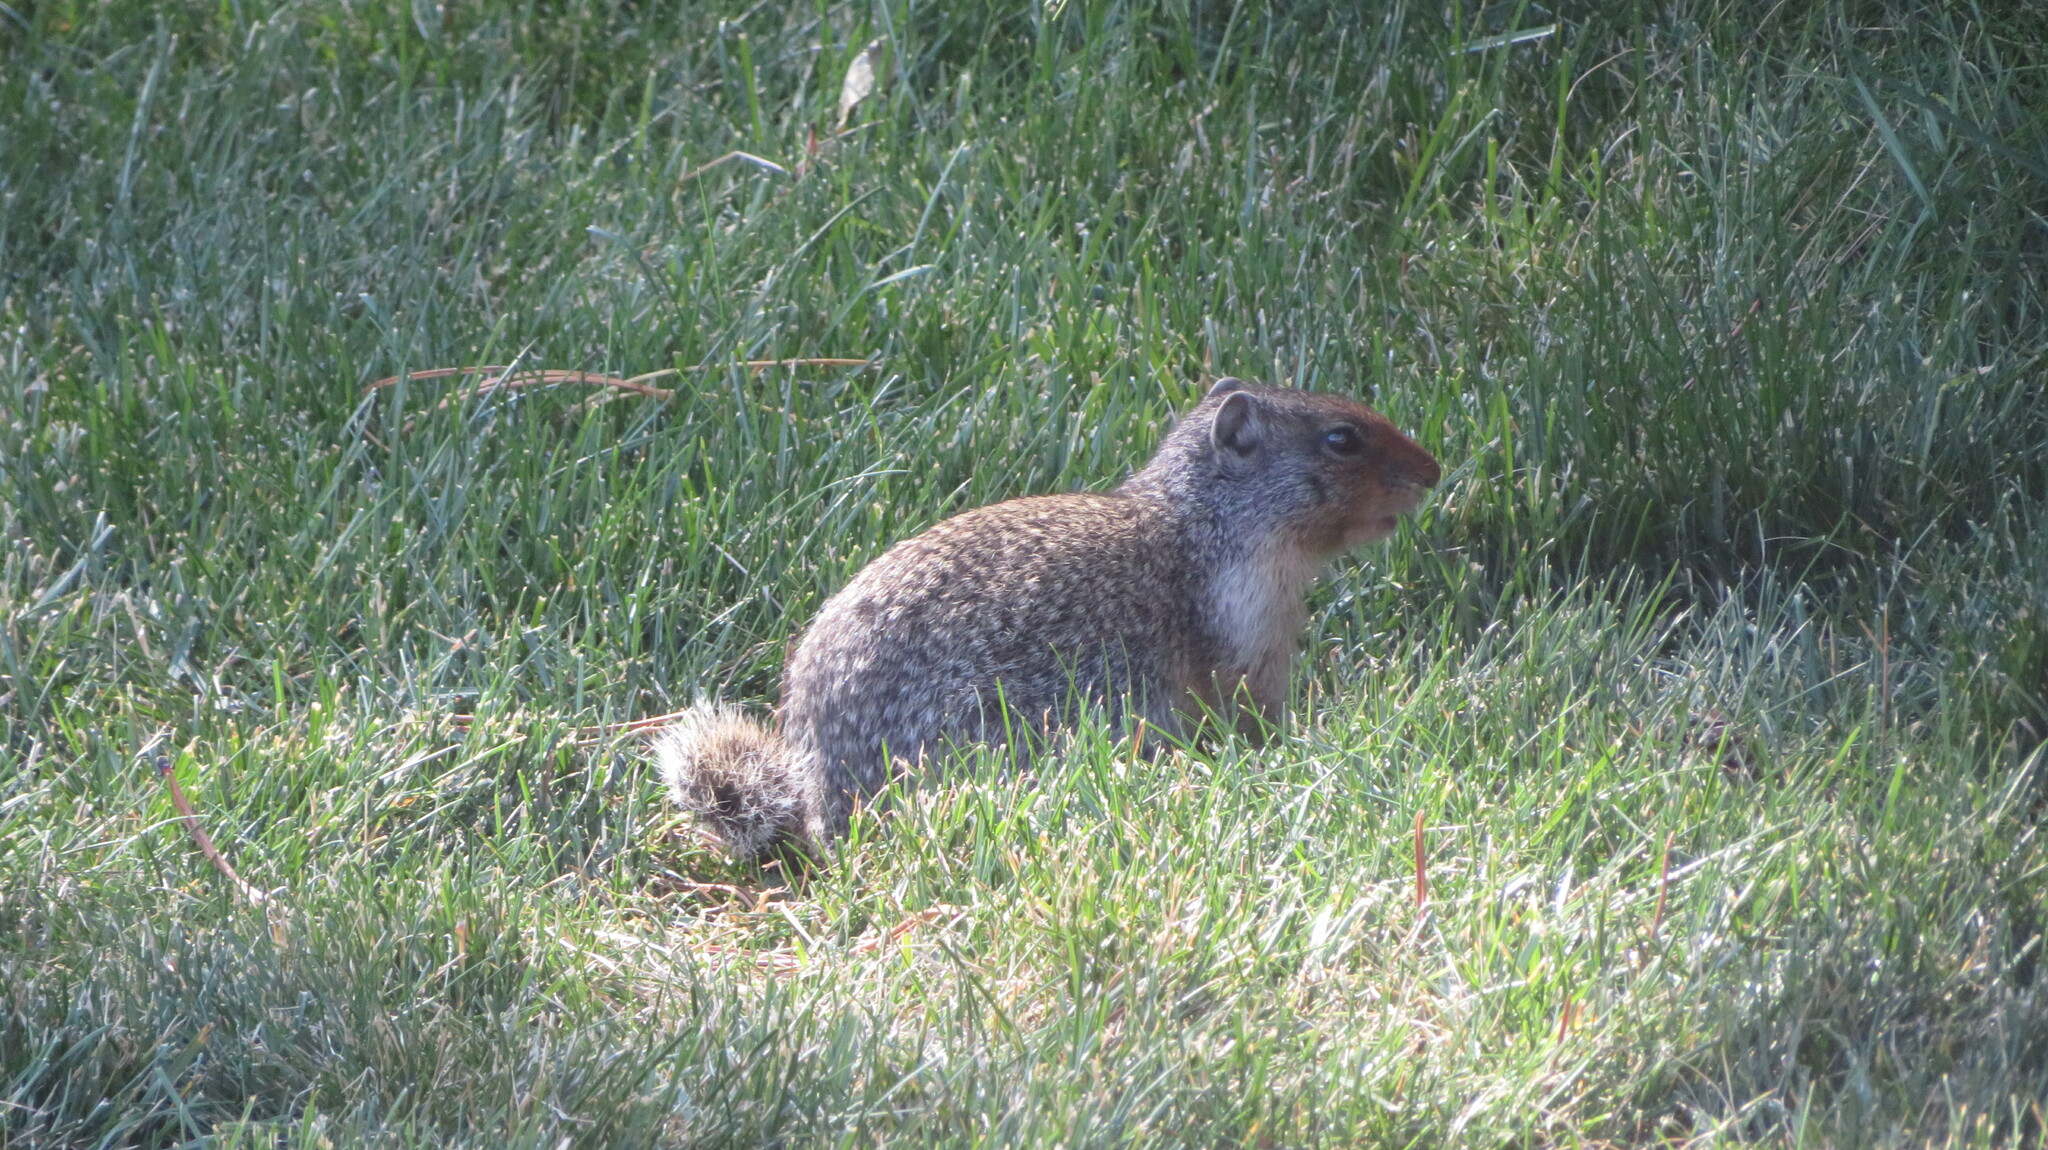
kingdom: Animalia
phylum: Chordata
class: Mammalia
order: Rodentia
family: Sciuridae
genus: Urocitellus
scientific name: Urocitellus columbianus
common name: Columbian ground squirrel
